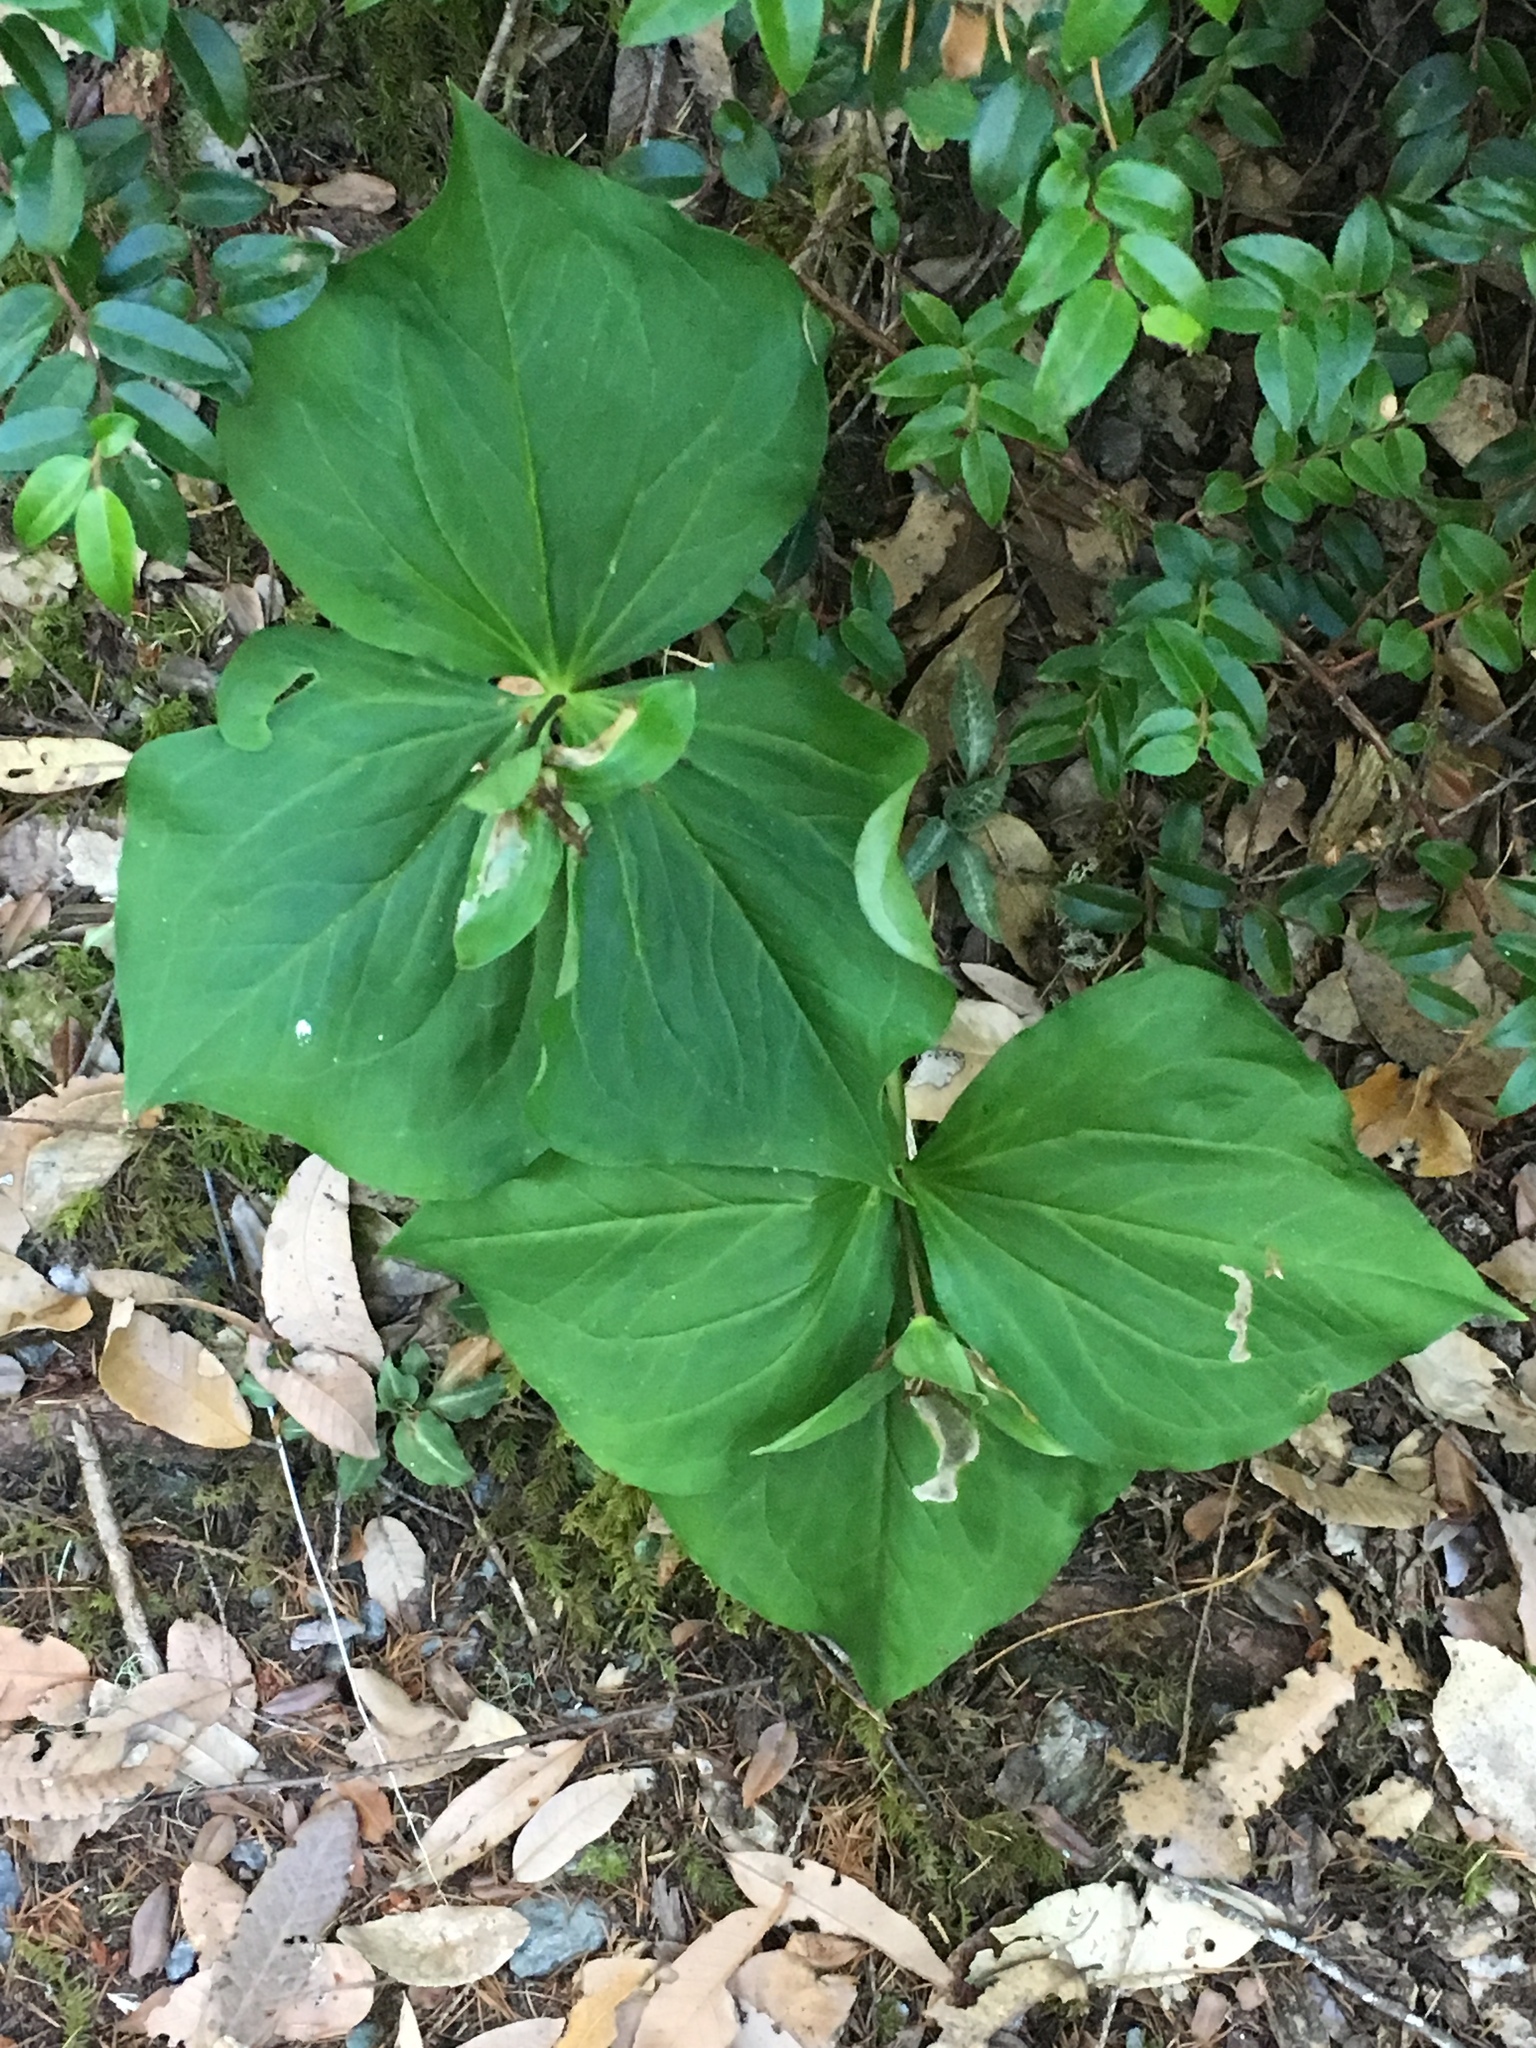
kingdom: Plantae
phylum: Tracheophyta
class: Liliopsida
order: Liliales
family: Melanthiaceae
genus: Trillium
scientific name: Trillium ovatum
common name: Pacific trillium
